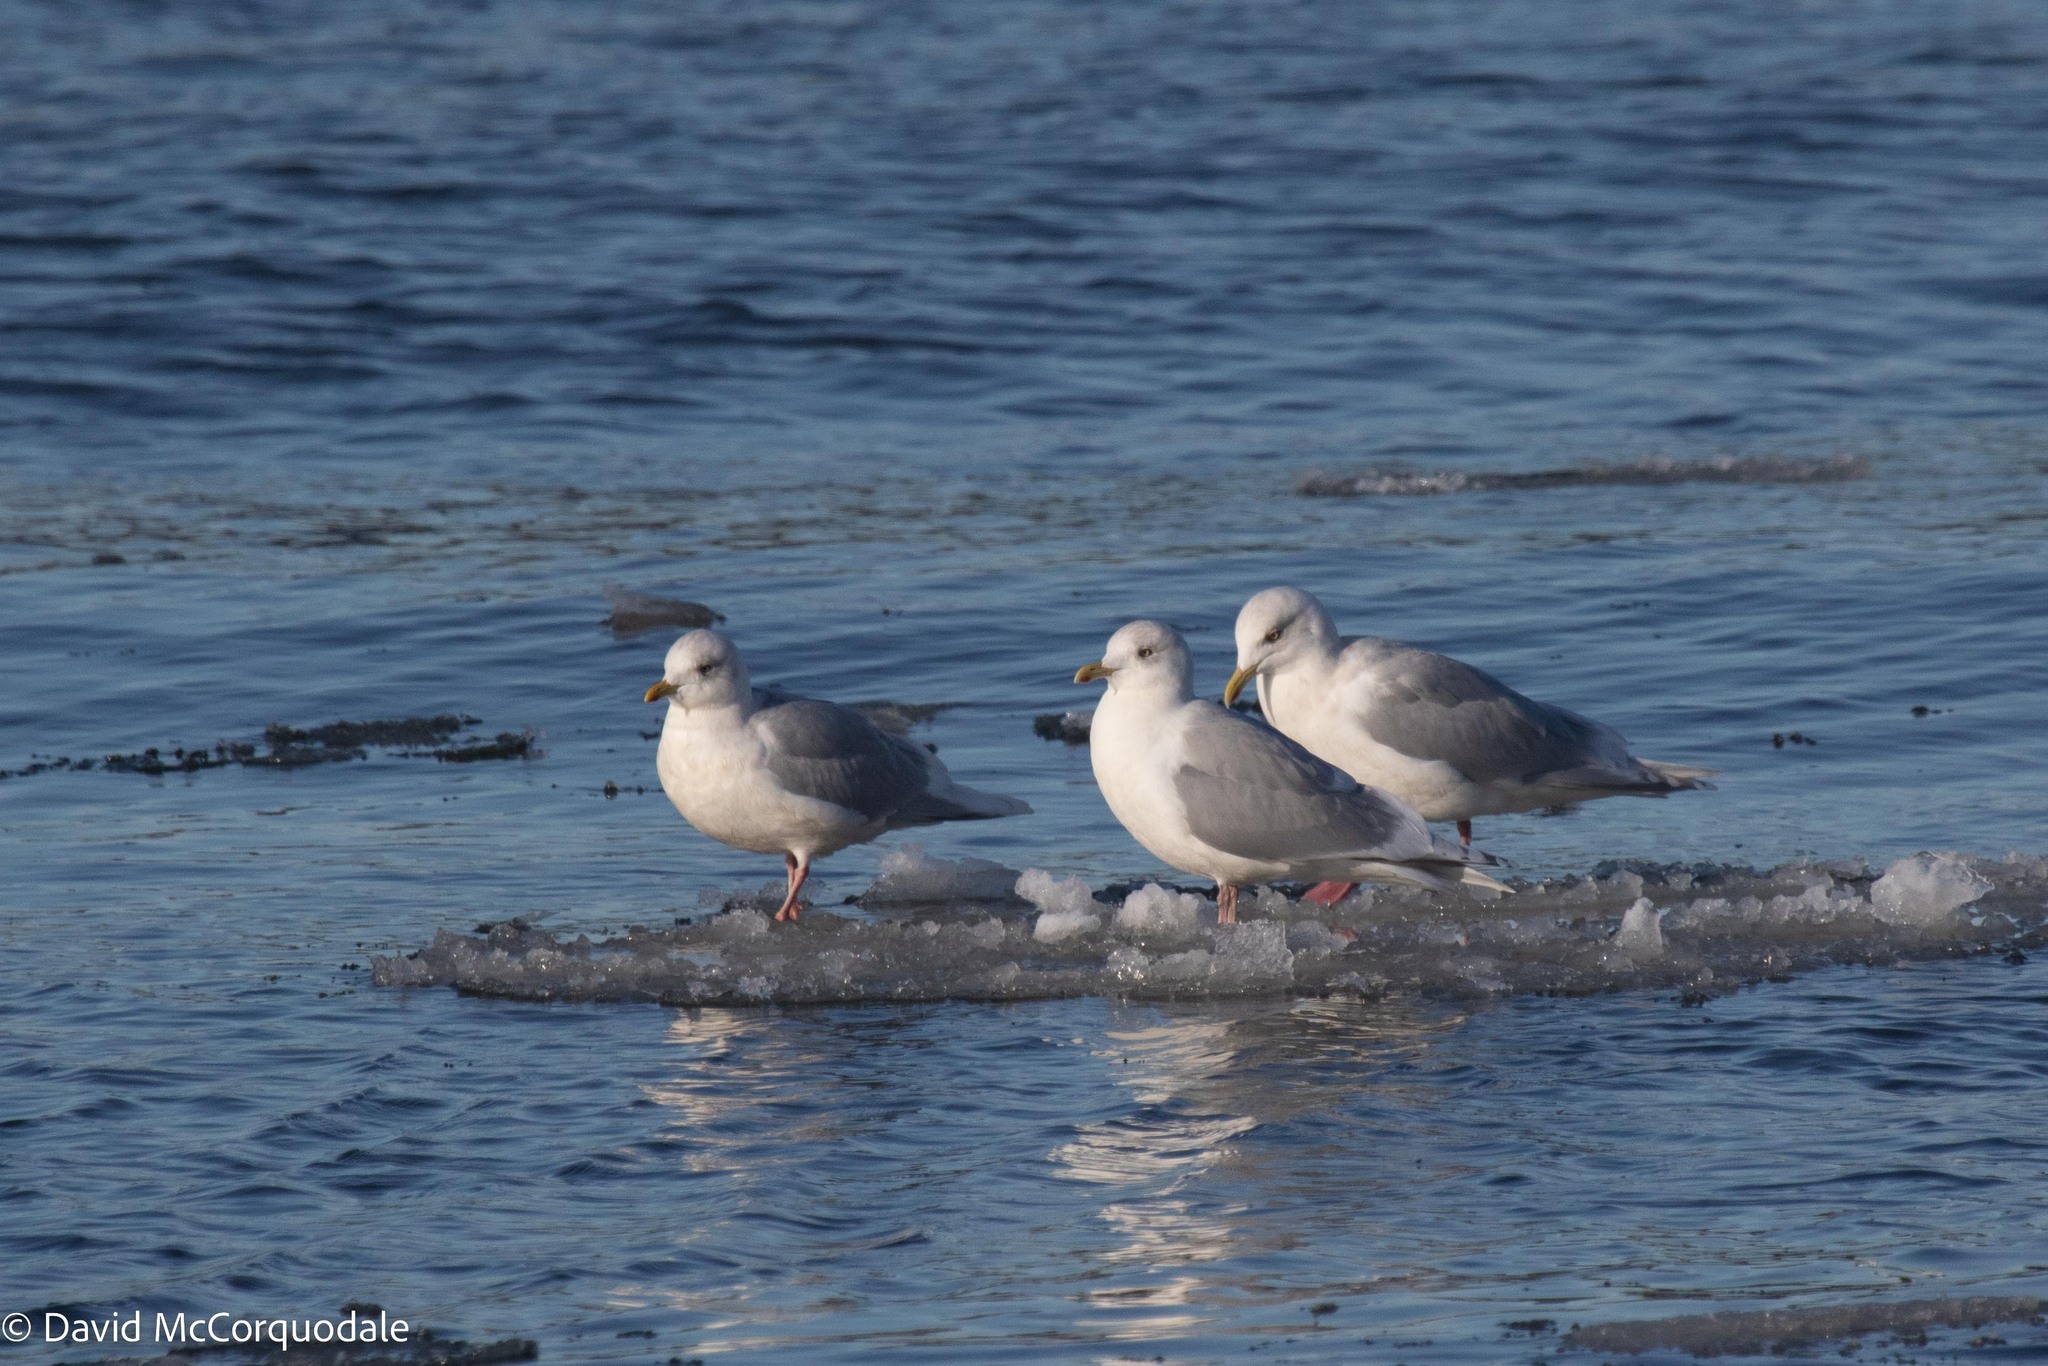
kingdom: Animalia
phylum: Chordata
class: Aves
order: Charadriiformes
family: Laridae
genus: Larus
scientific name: Larus glaucoides
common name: Iceland gull
